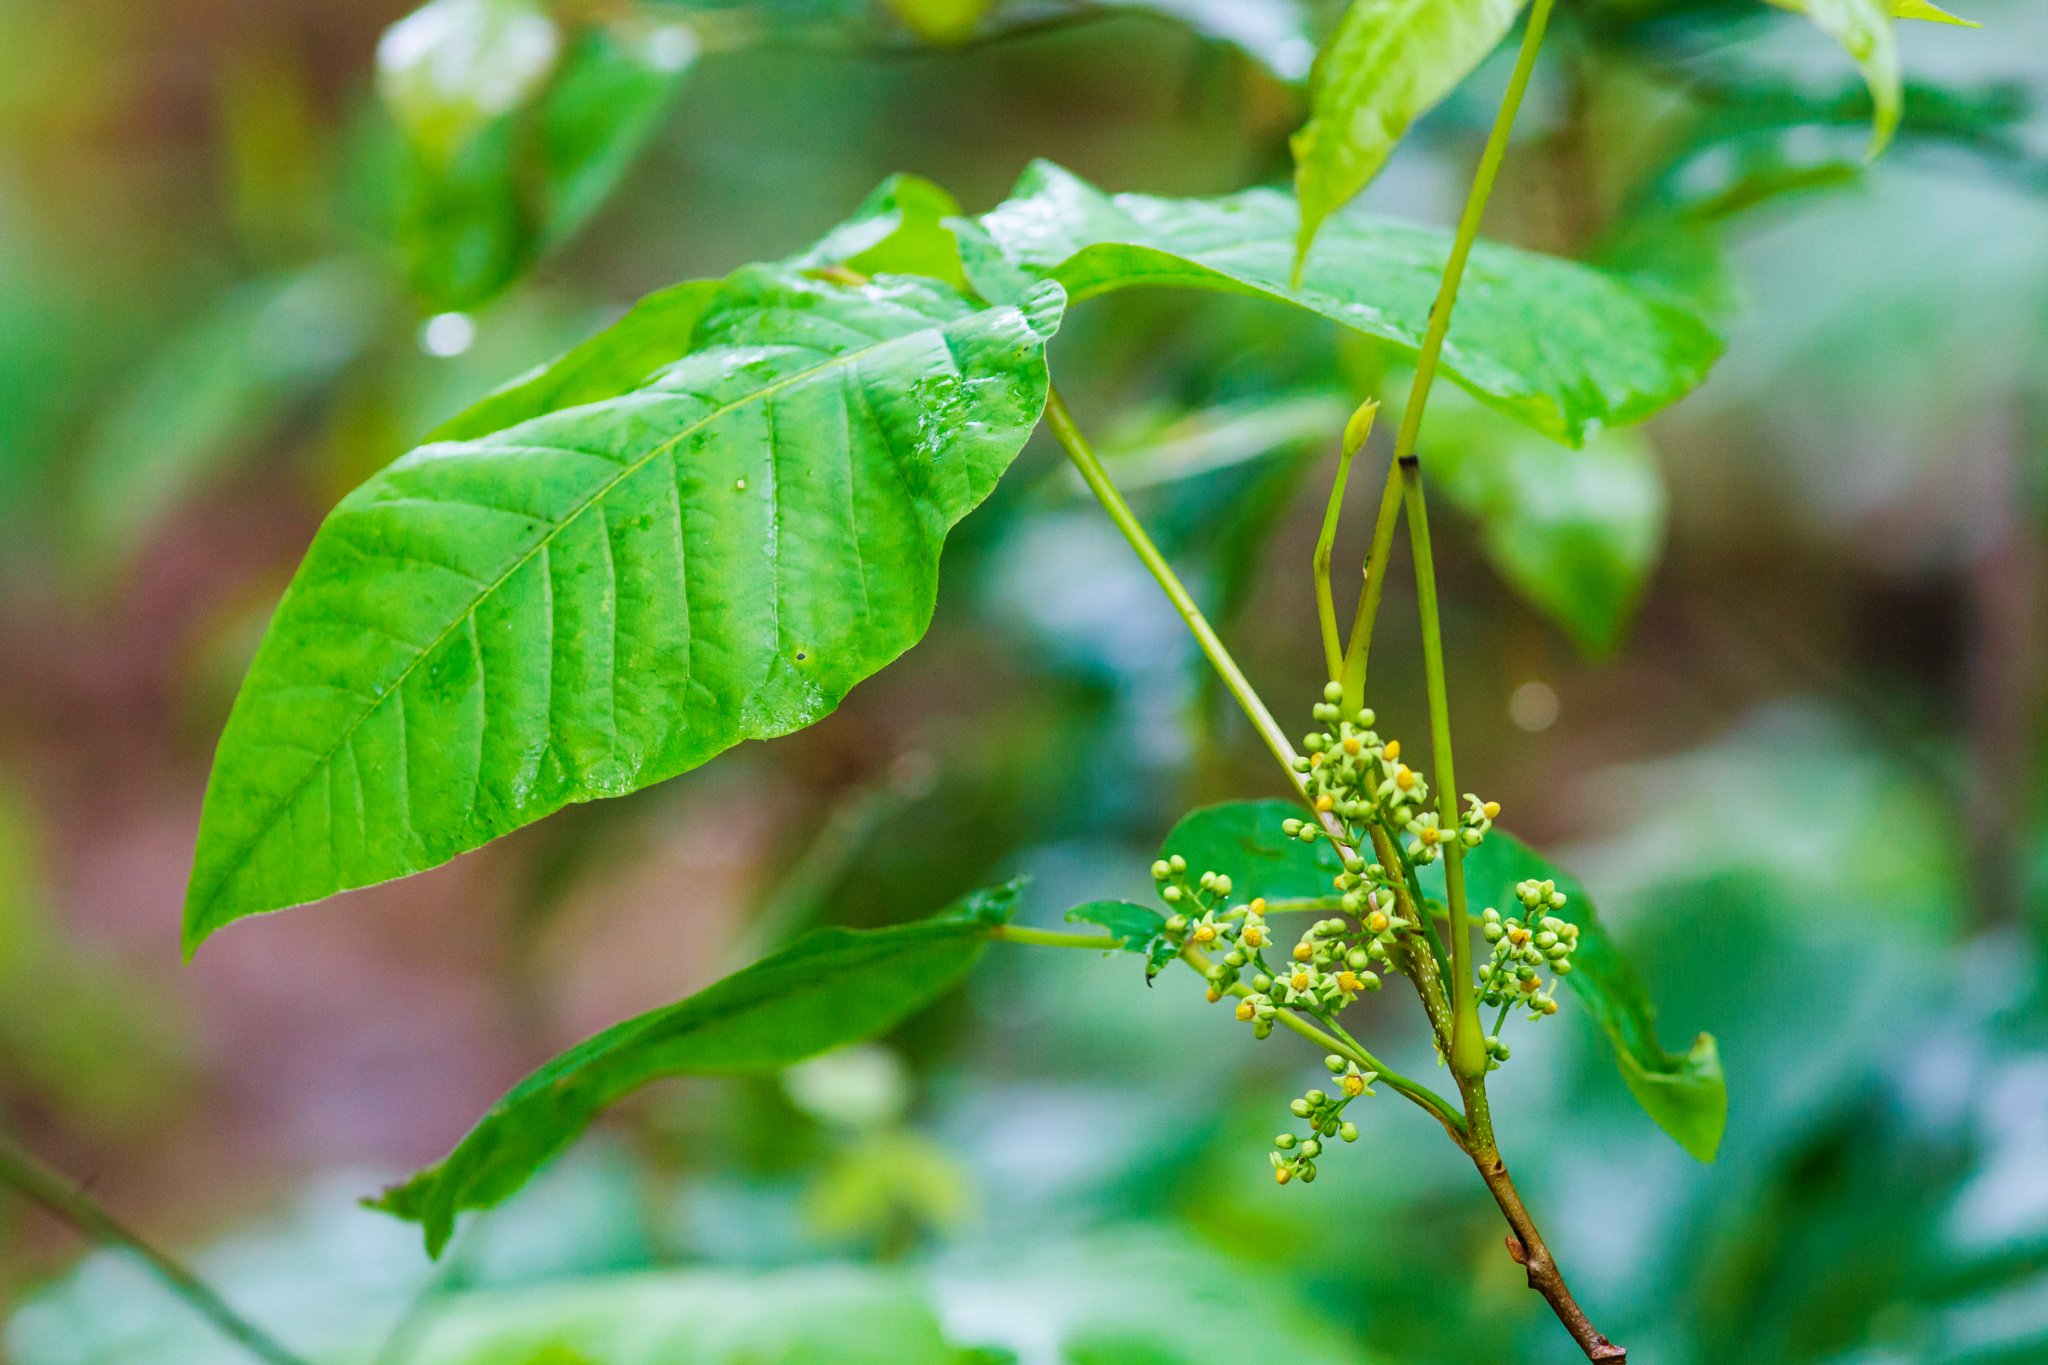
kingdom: Plantae
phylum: Tracheophyta
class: Magnoliopsida
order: Sapindales
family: Anacardiaceae
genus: Toxicodendron
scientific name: Toxicodendron radicans
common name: Poison ivy
